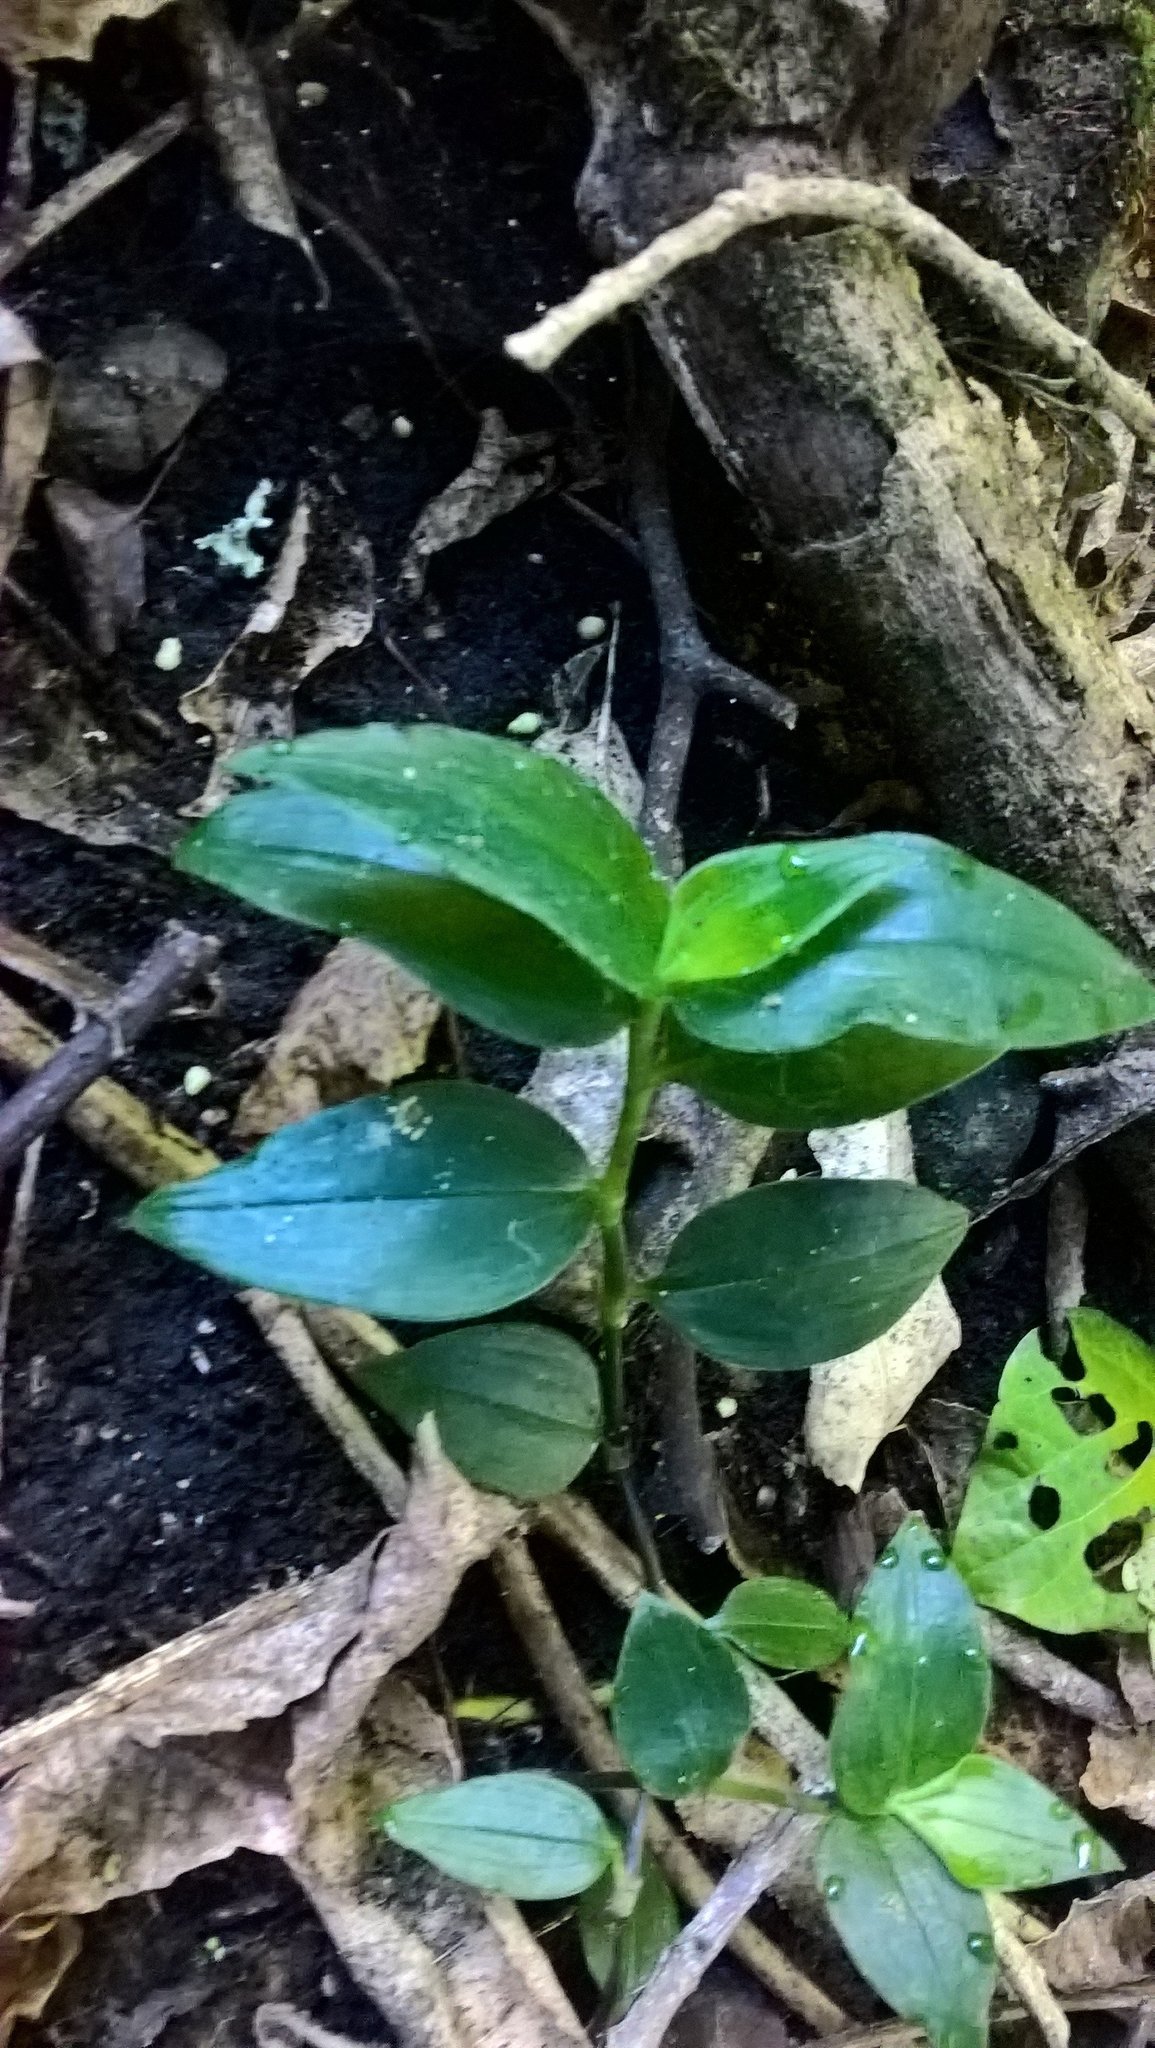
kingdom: Plantae
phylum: Tracheophyta
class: Liliopsida
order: Commelinales
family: Commelinaceae
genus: Tradescantia
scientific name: Tradescantia fluminensis
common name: Wandering-jew
